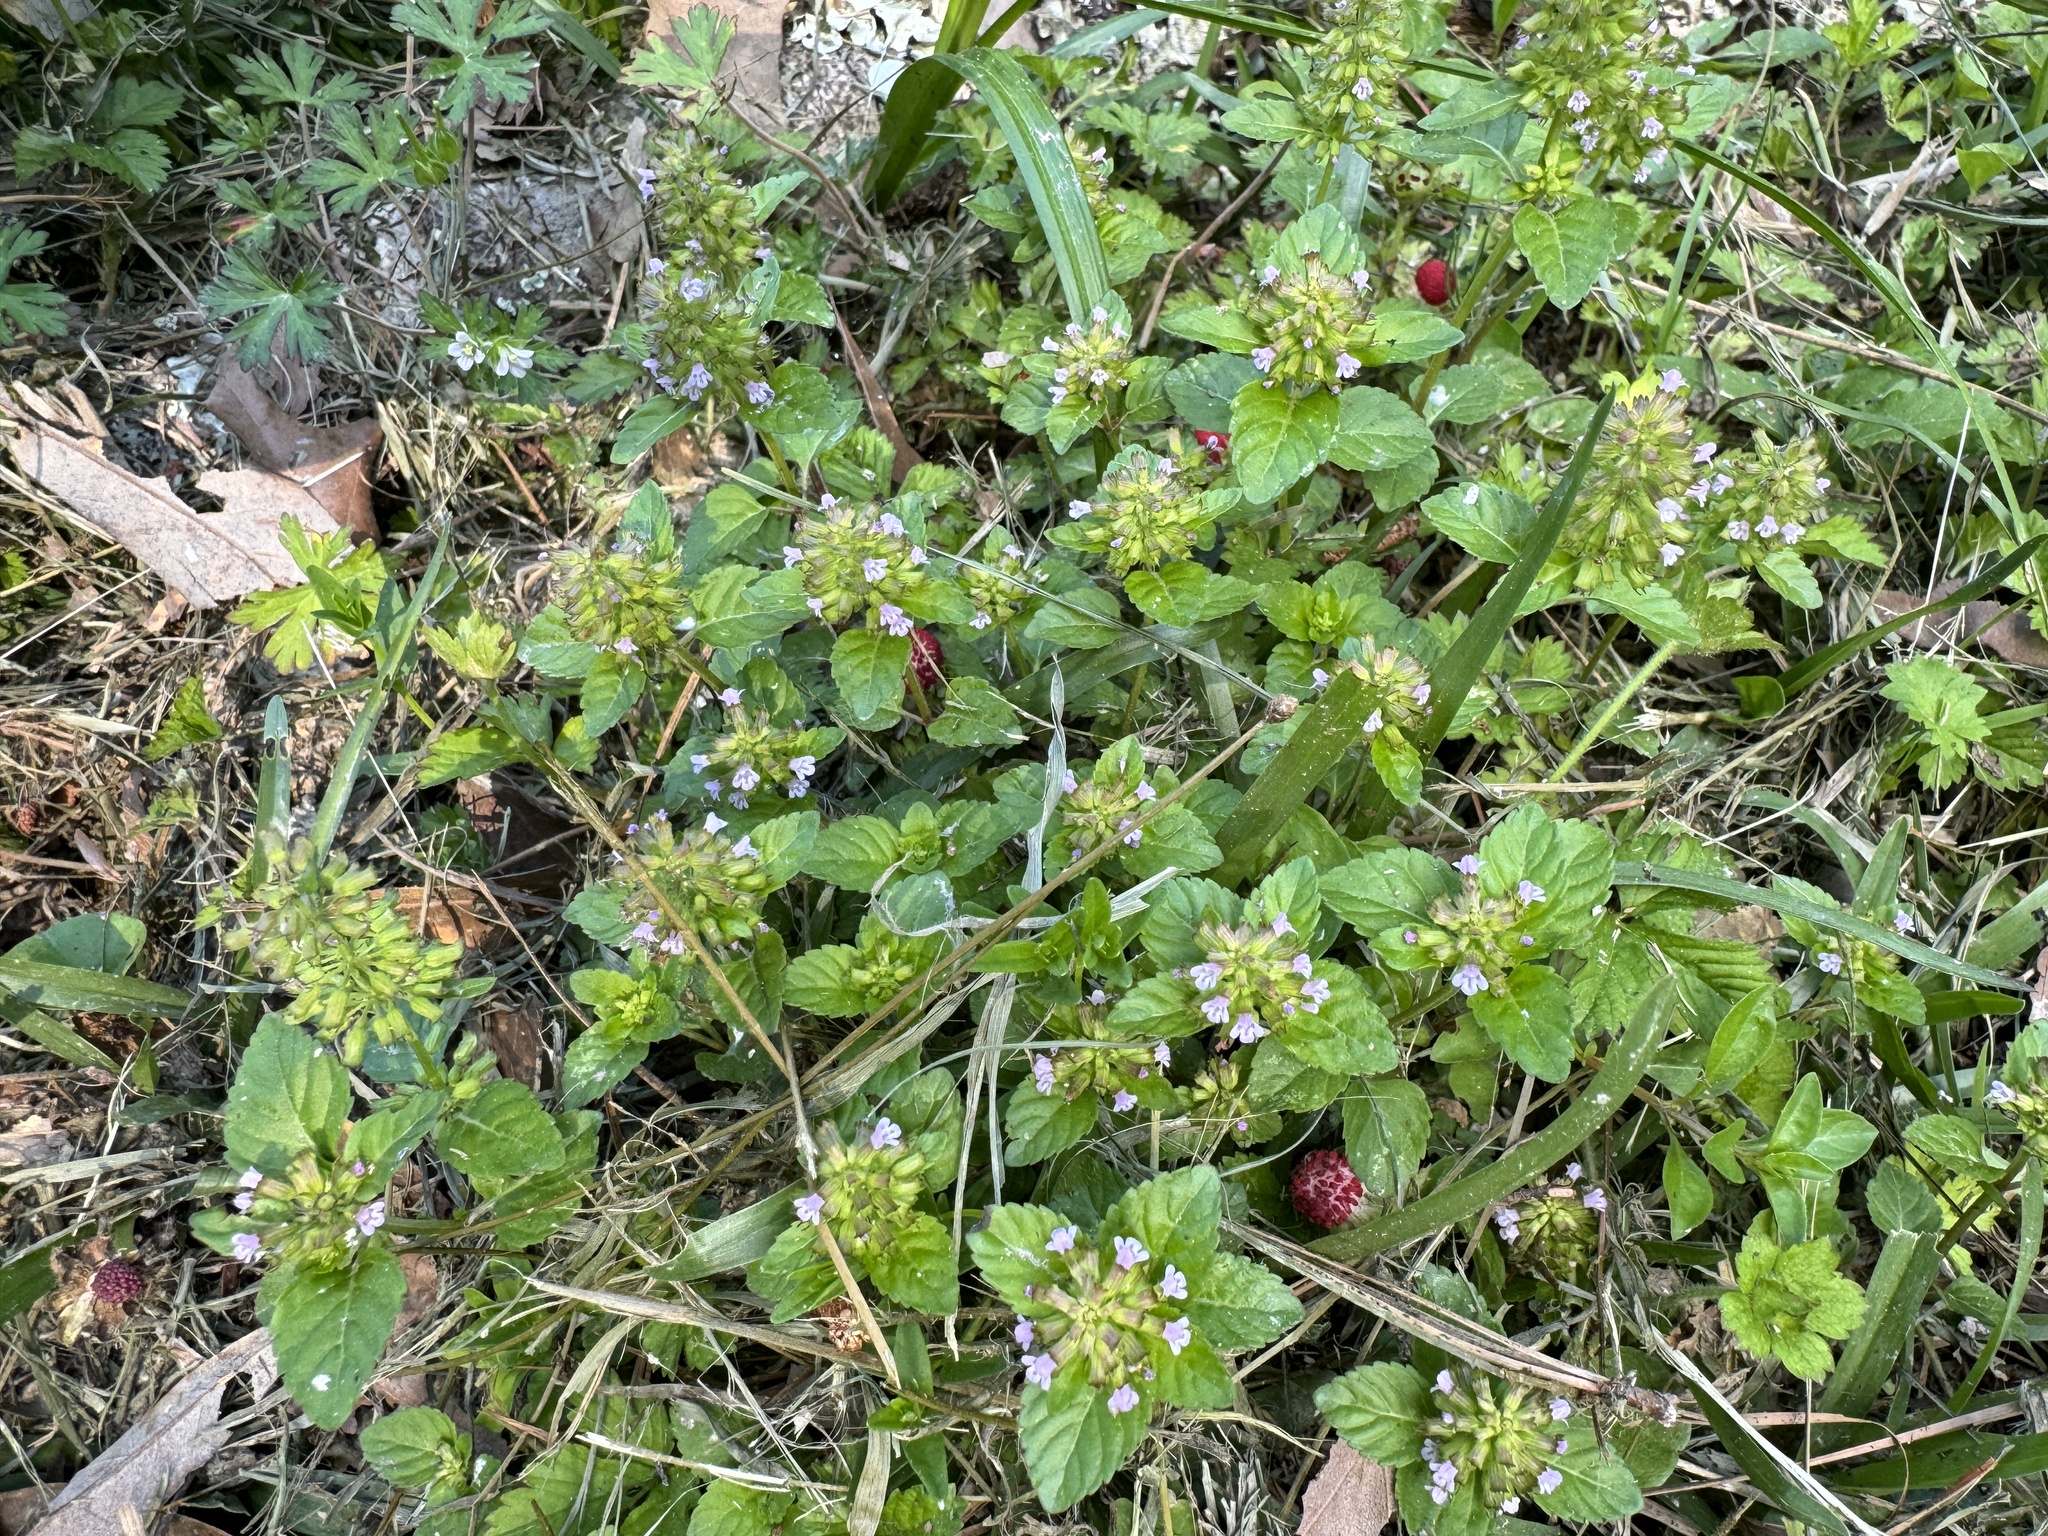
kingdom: Plantae
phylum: Tracheophyta
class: Magnoliopsida
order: Lamiales
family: Lamiaceae
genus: Clinopodium
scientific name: Clinopodium gracile
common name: Slender wild basil
